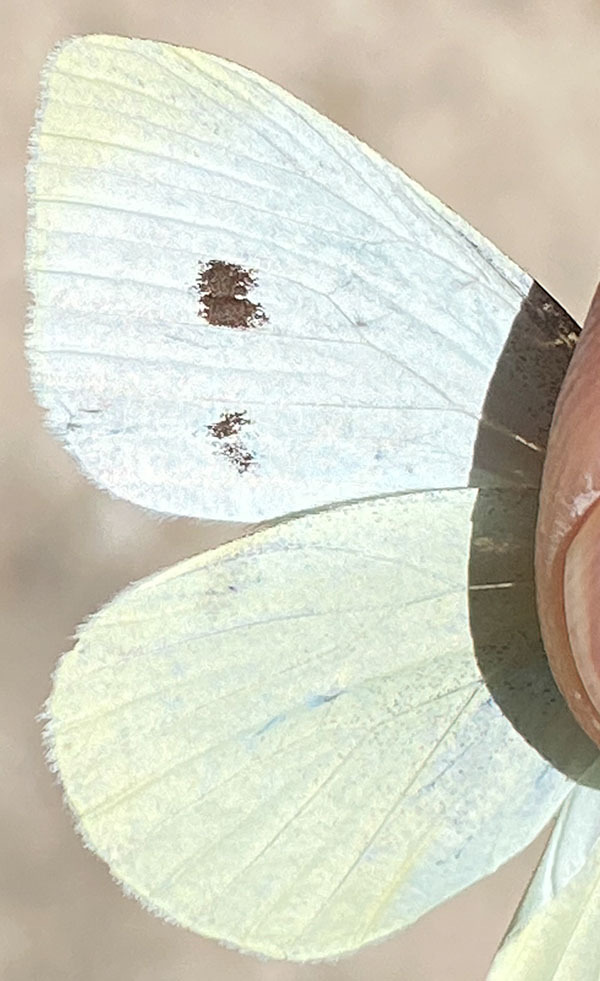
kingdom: Animalia
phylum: Arthropoda
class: Insecta
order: Lepidoptera
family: Pieridae
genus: Pieris
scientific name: Pieris rapae
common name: Small white
